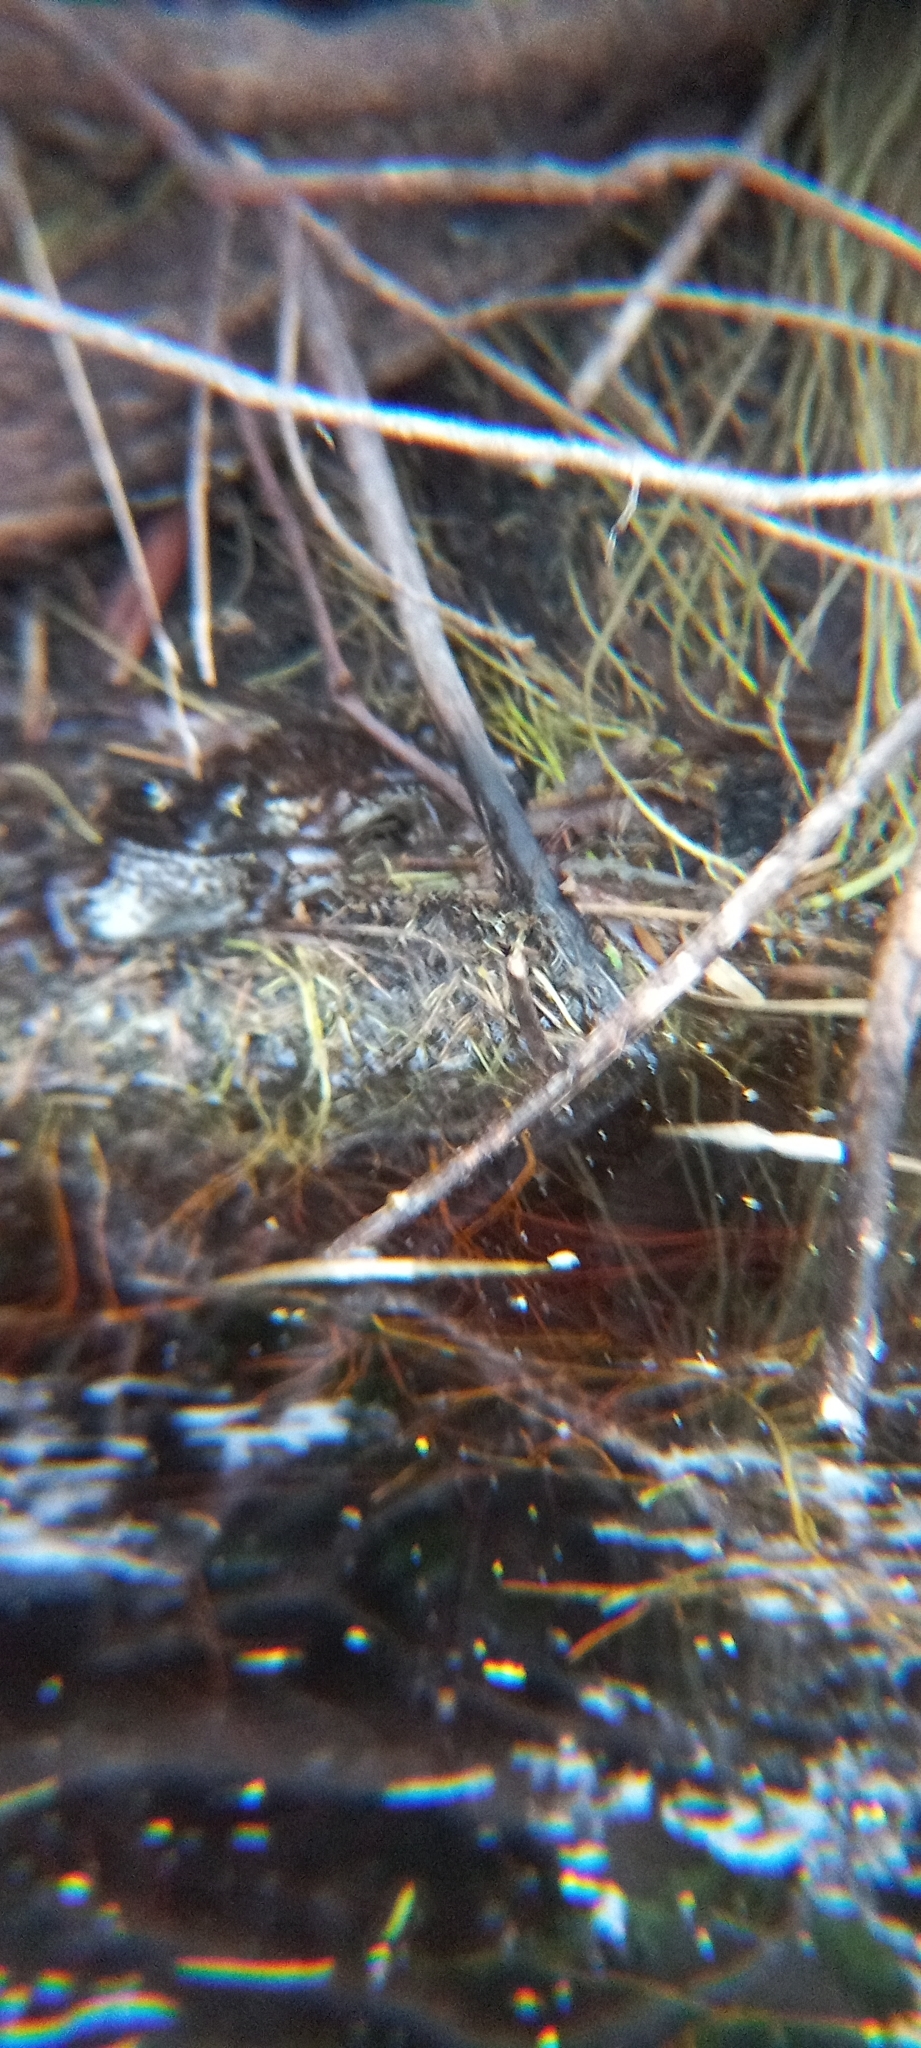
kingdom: Animalia
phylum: Chordata
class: Amphibia
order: Anura
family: Pyxicephalidae
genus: Amietia
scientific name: Amietia fuscigula
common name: Cape rana
